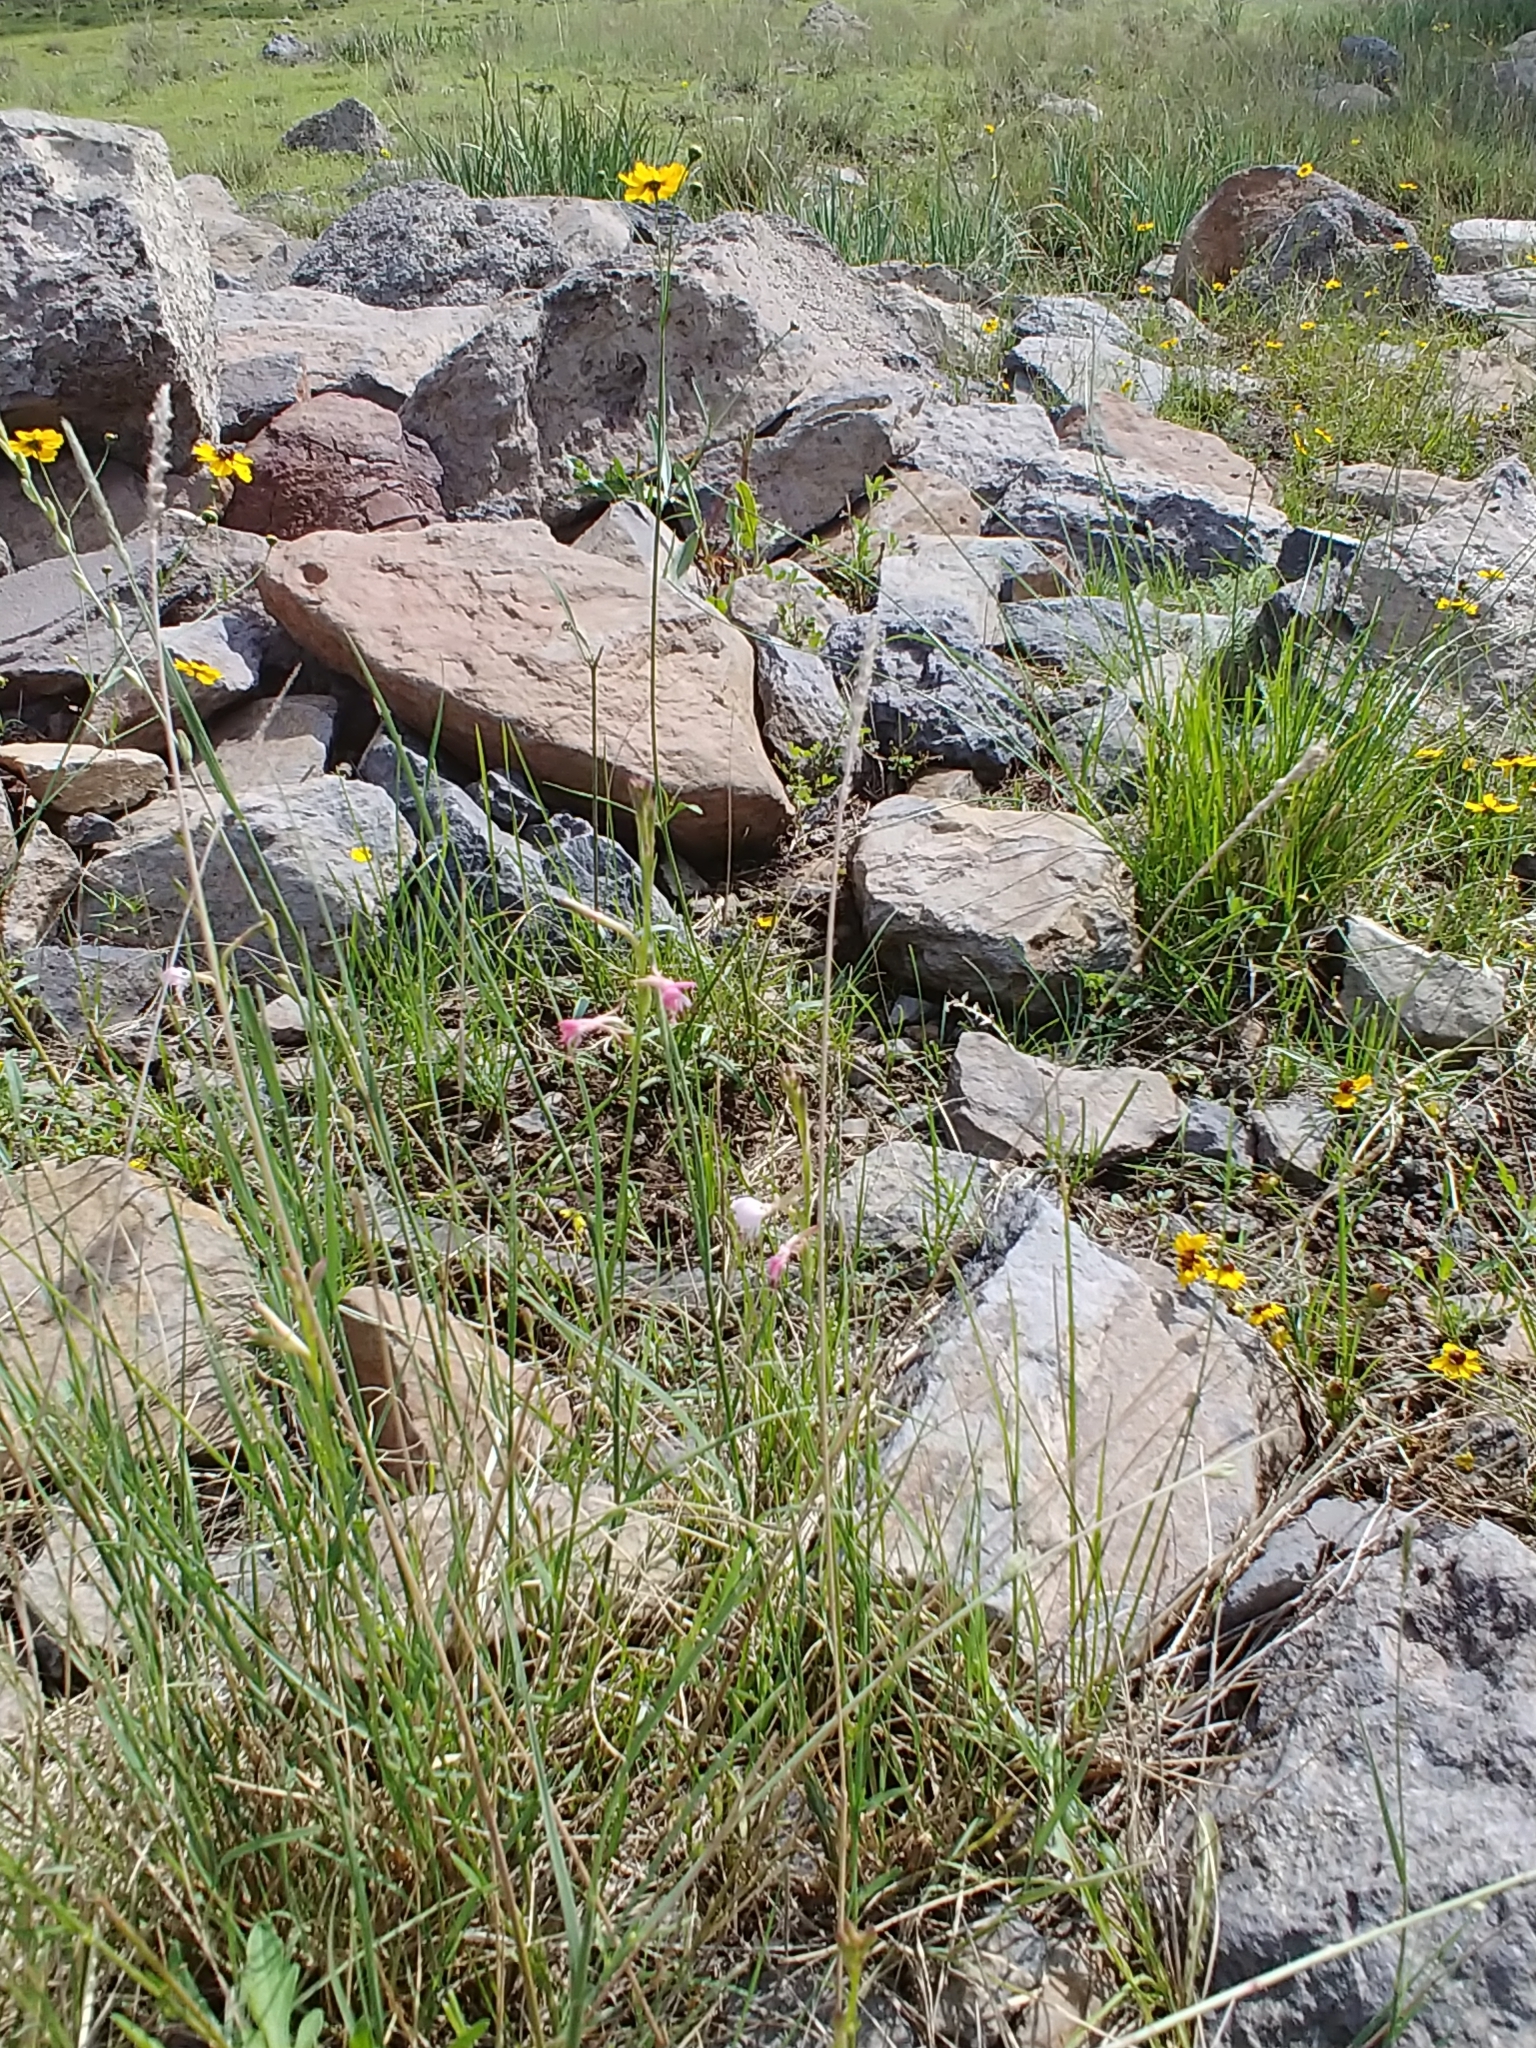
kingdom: Plantae
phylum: Tracheophyta
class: Magnoliopsida
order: Asterales
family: Asteraceae
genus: Coreopsis
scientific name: Coreopsis tinctoria
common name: Garden tickseed
